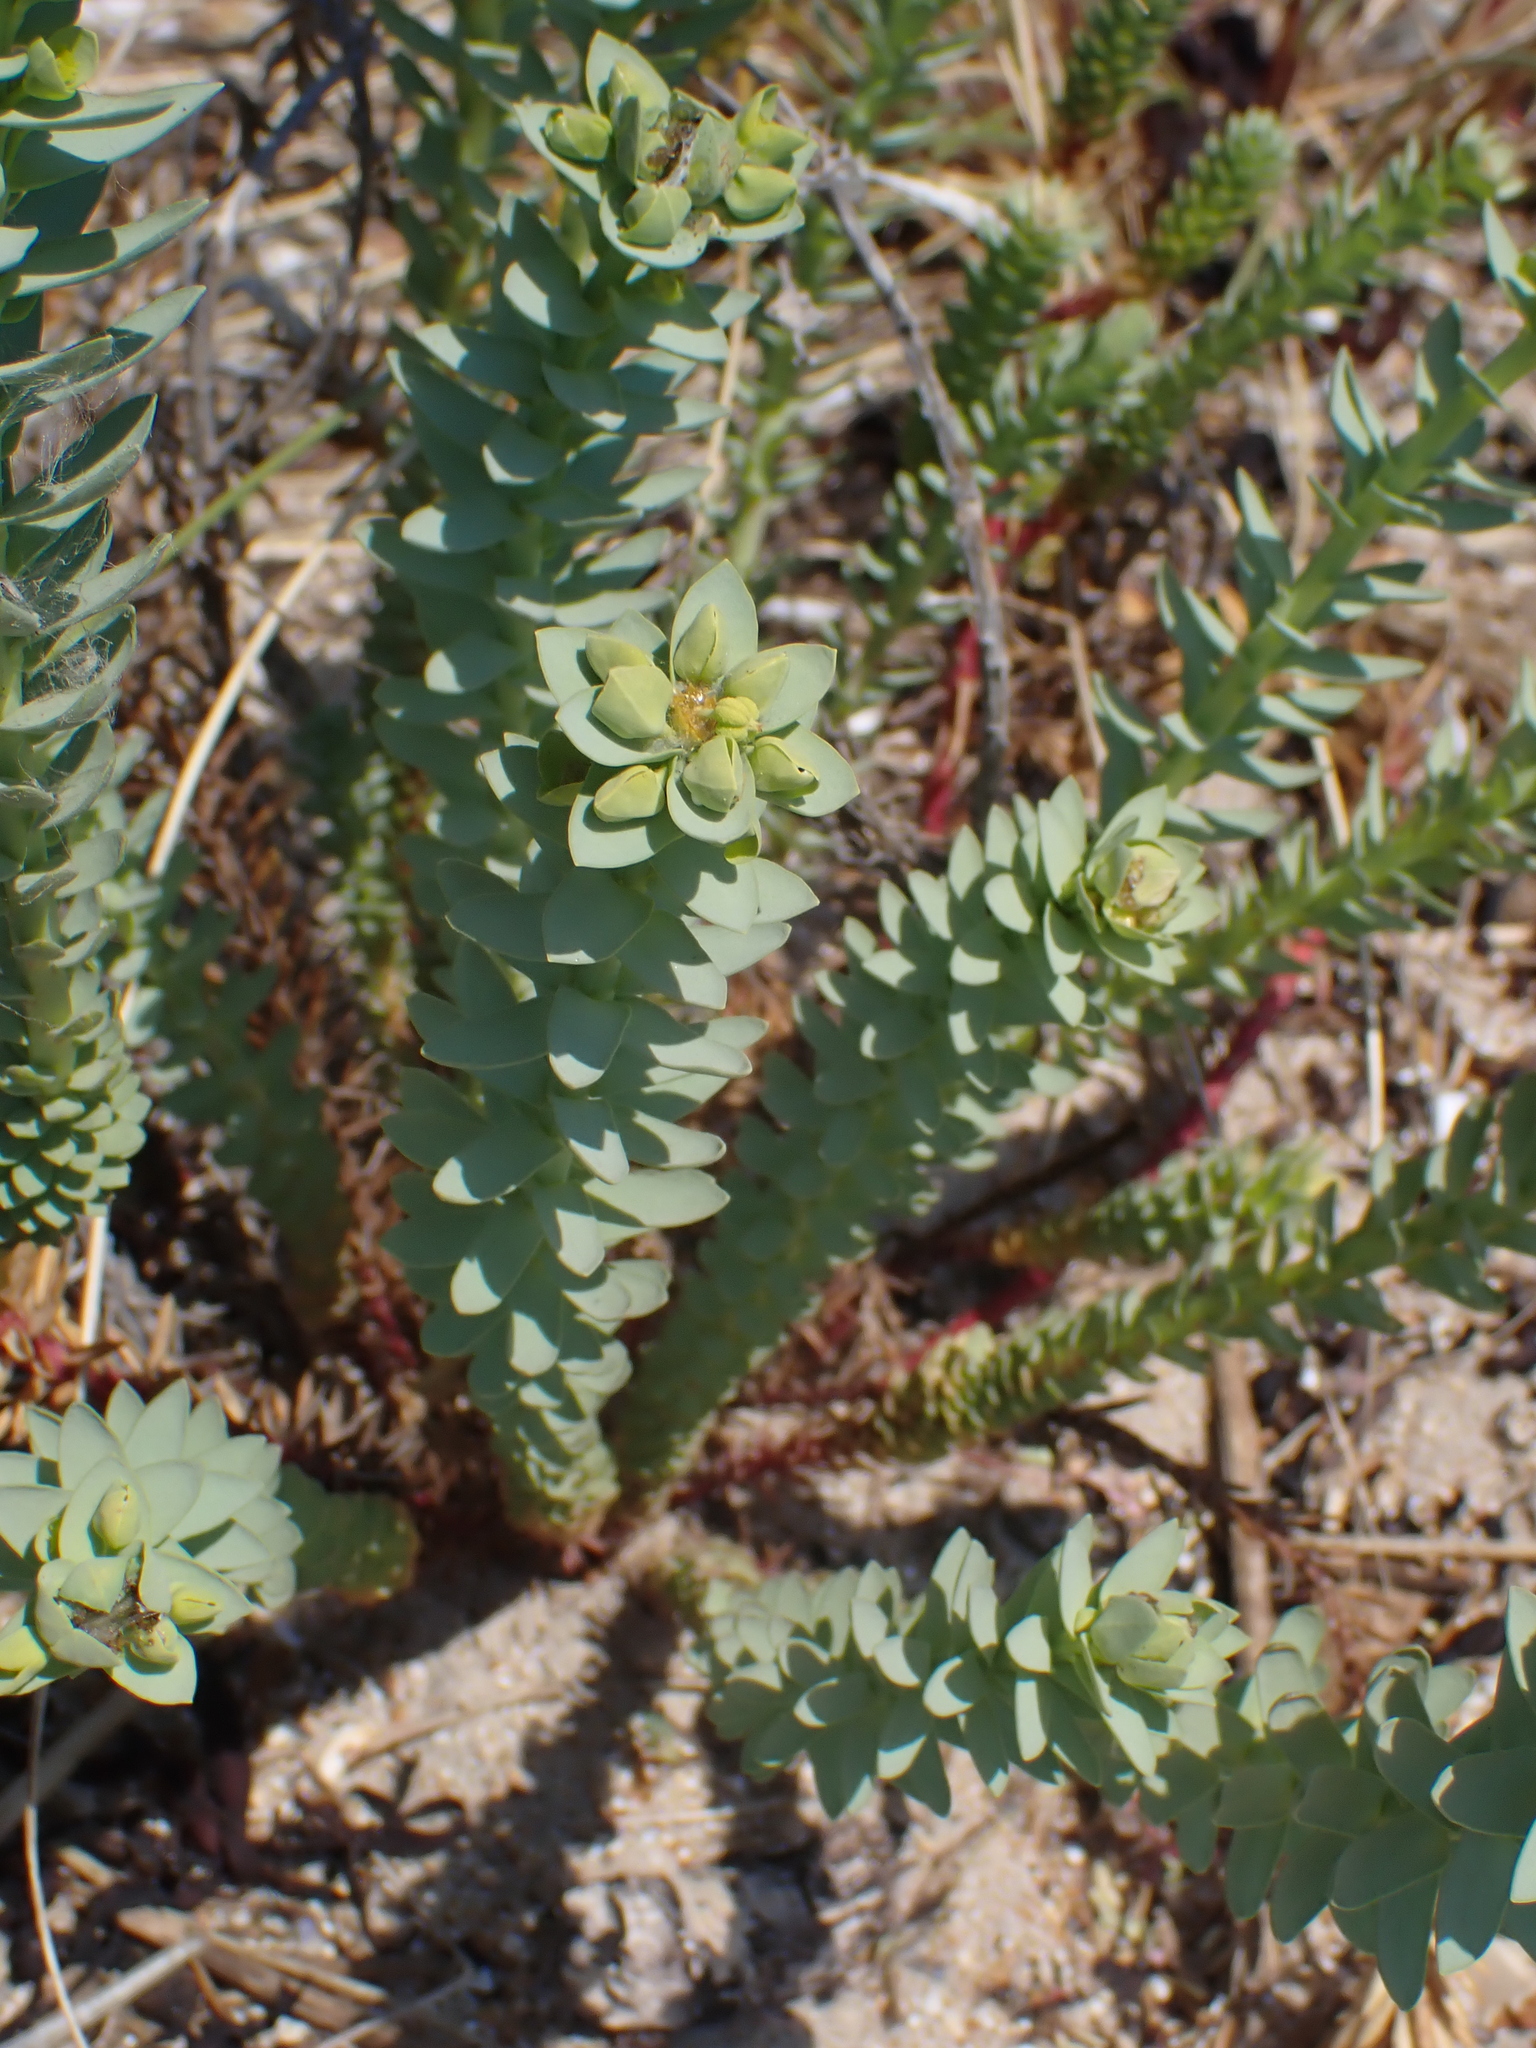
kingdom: Plantae
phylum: Tracheophyta
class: Magnoliopsida
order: Malpighiales
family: Euphorbiaceae
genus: Euphorbia
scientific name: Euphorbia paralias
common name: Sea spurge
